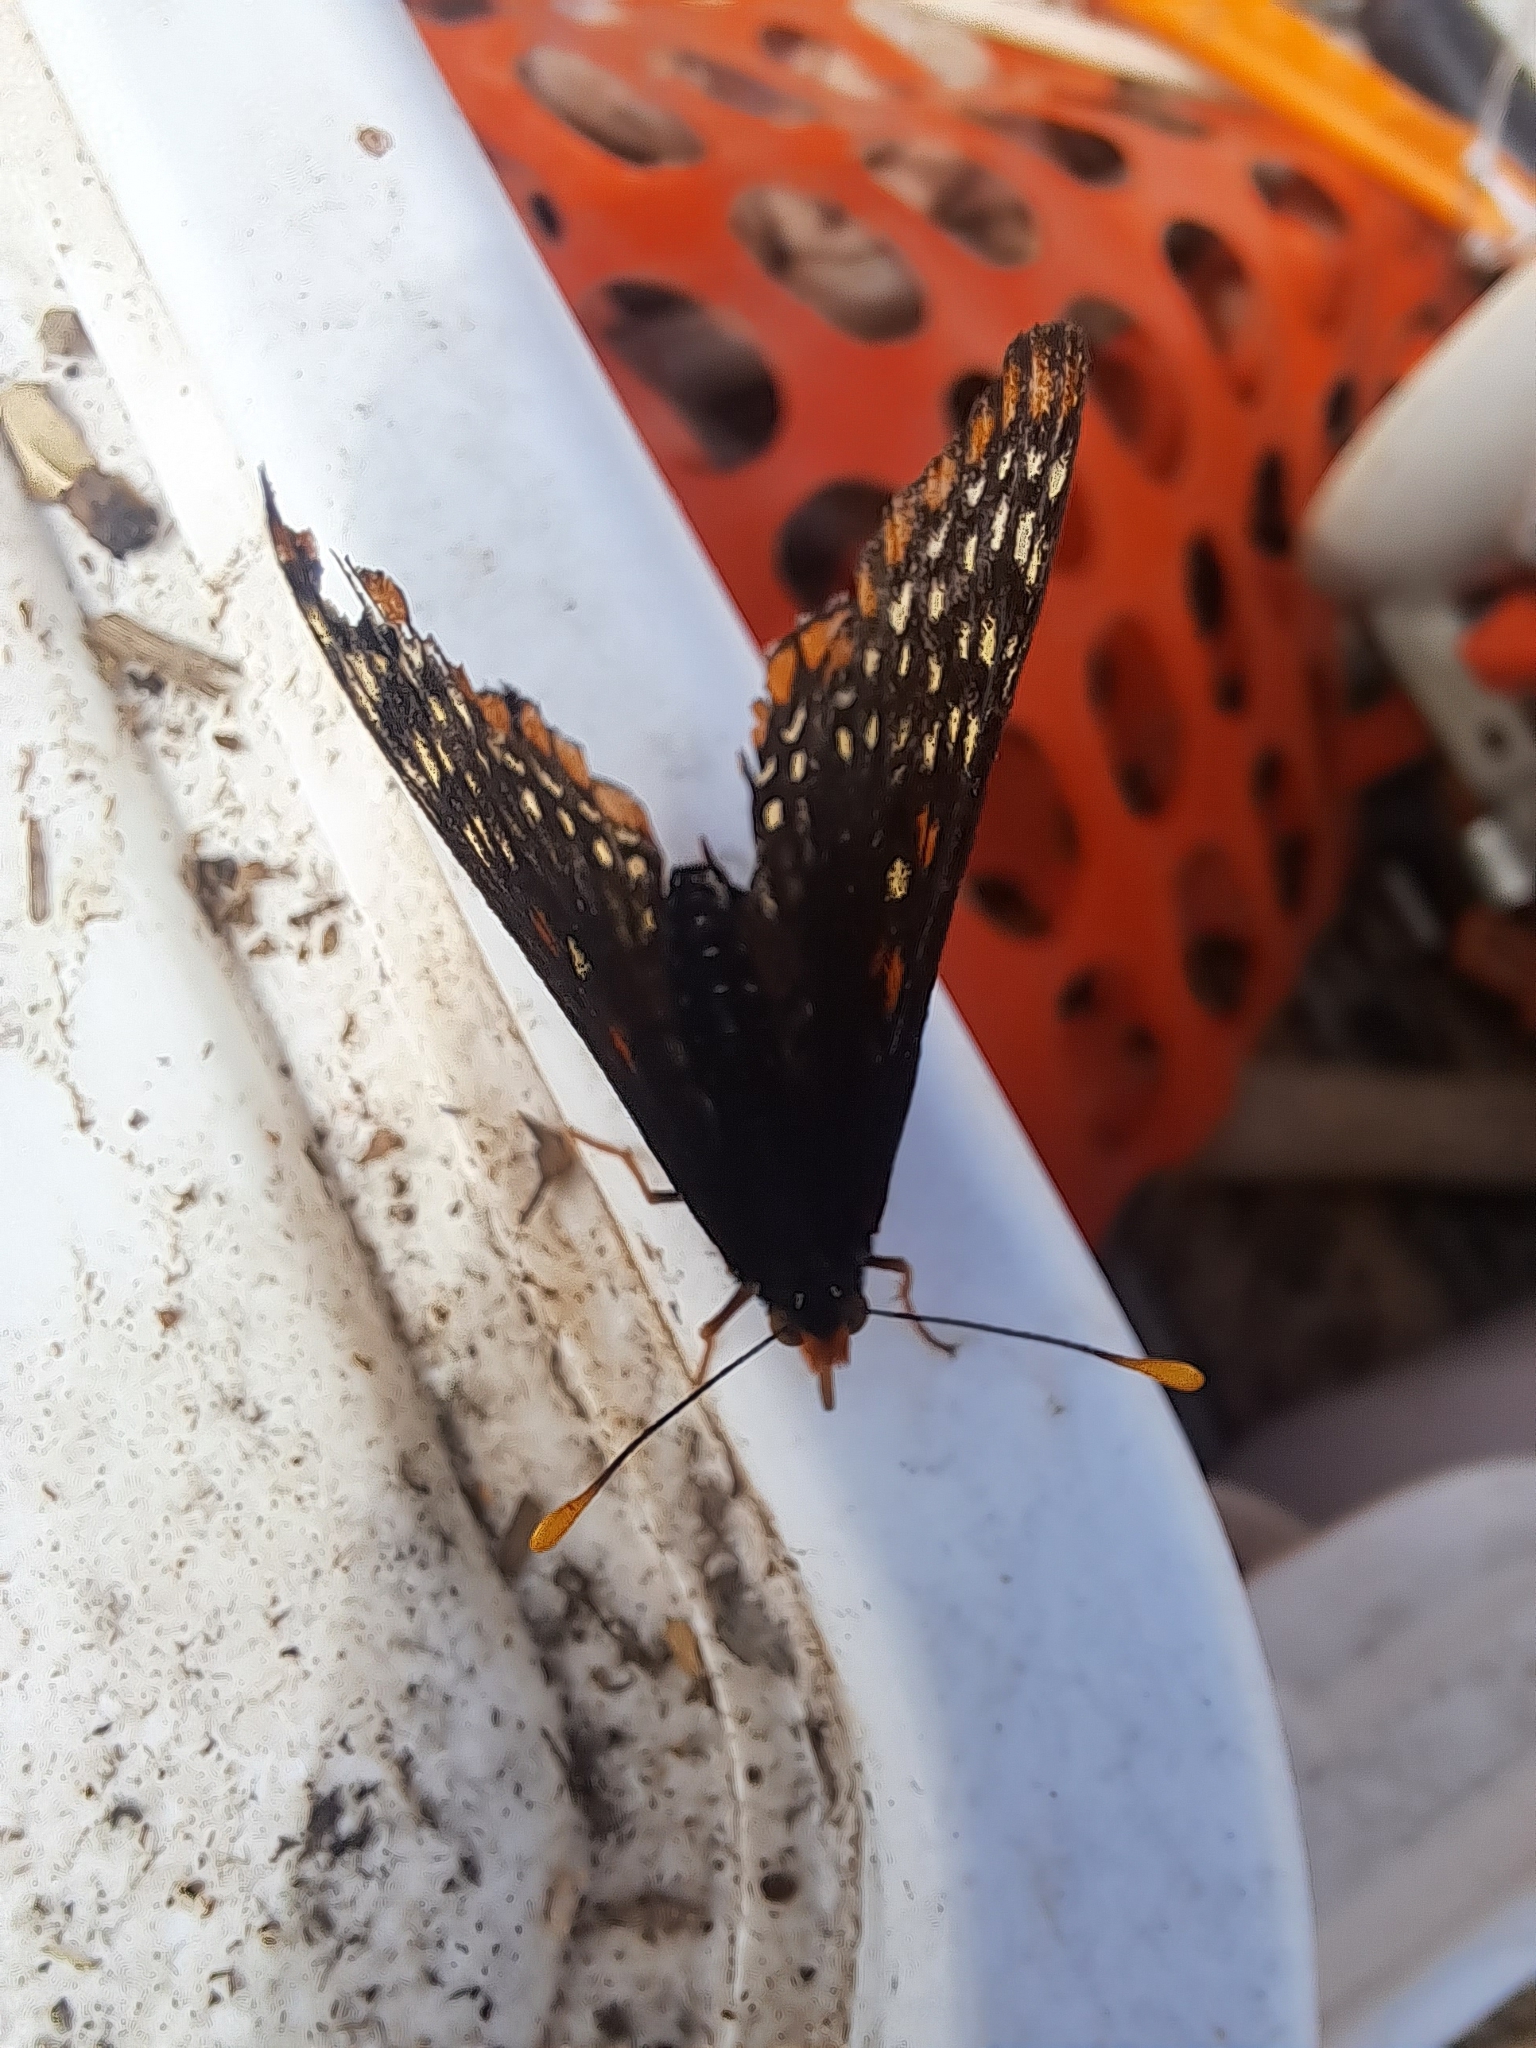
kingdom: Animalia
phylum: Arthropoda
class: Insecta
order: Lepidoptera
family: Nymphalidae
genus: Euphydryas
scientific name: Euphydryas phaeton
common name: Baltimore checkerspot
